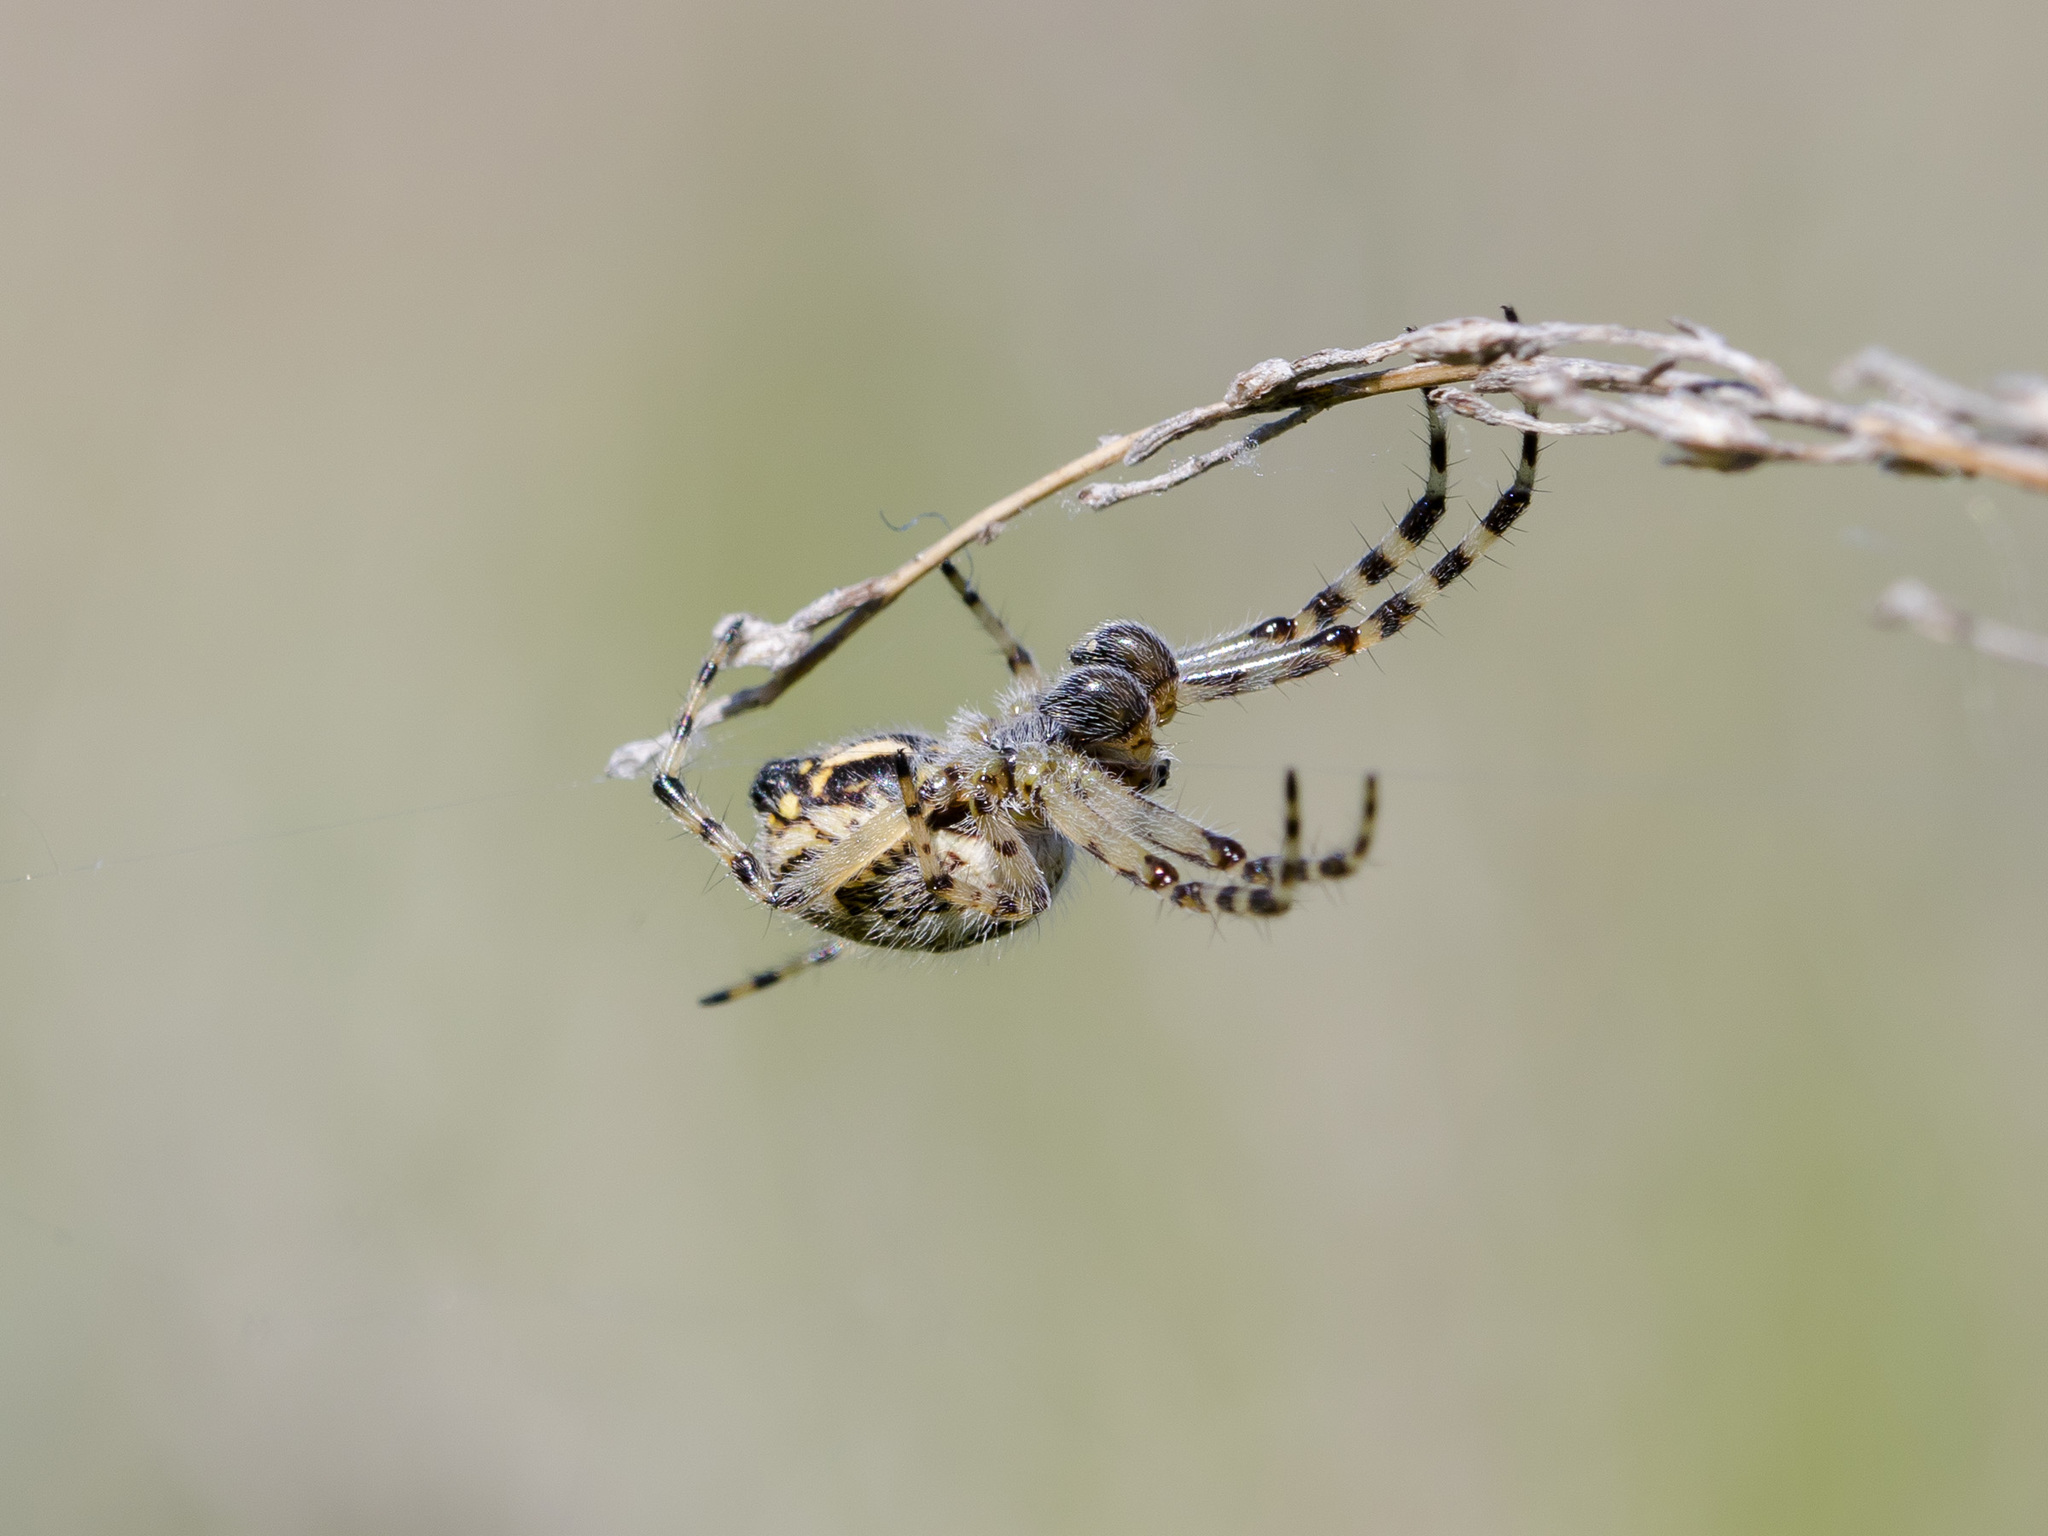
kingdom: Animalia
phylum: Arthropoda
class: Arachnida
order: Araneae
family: Araneidae
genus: Aculepeira
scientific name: Aculepeira armida
